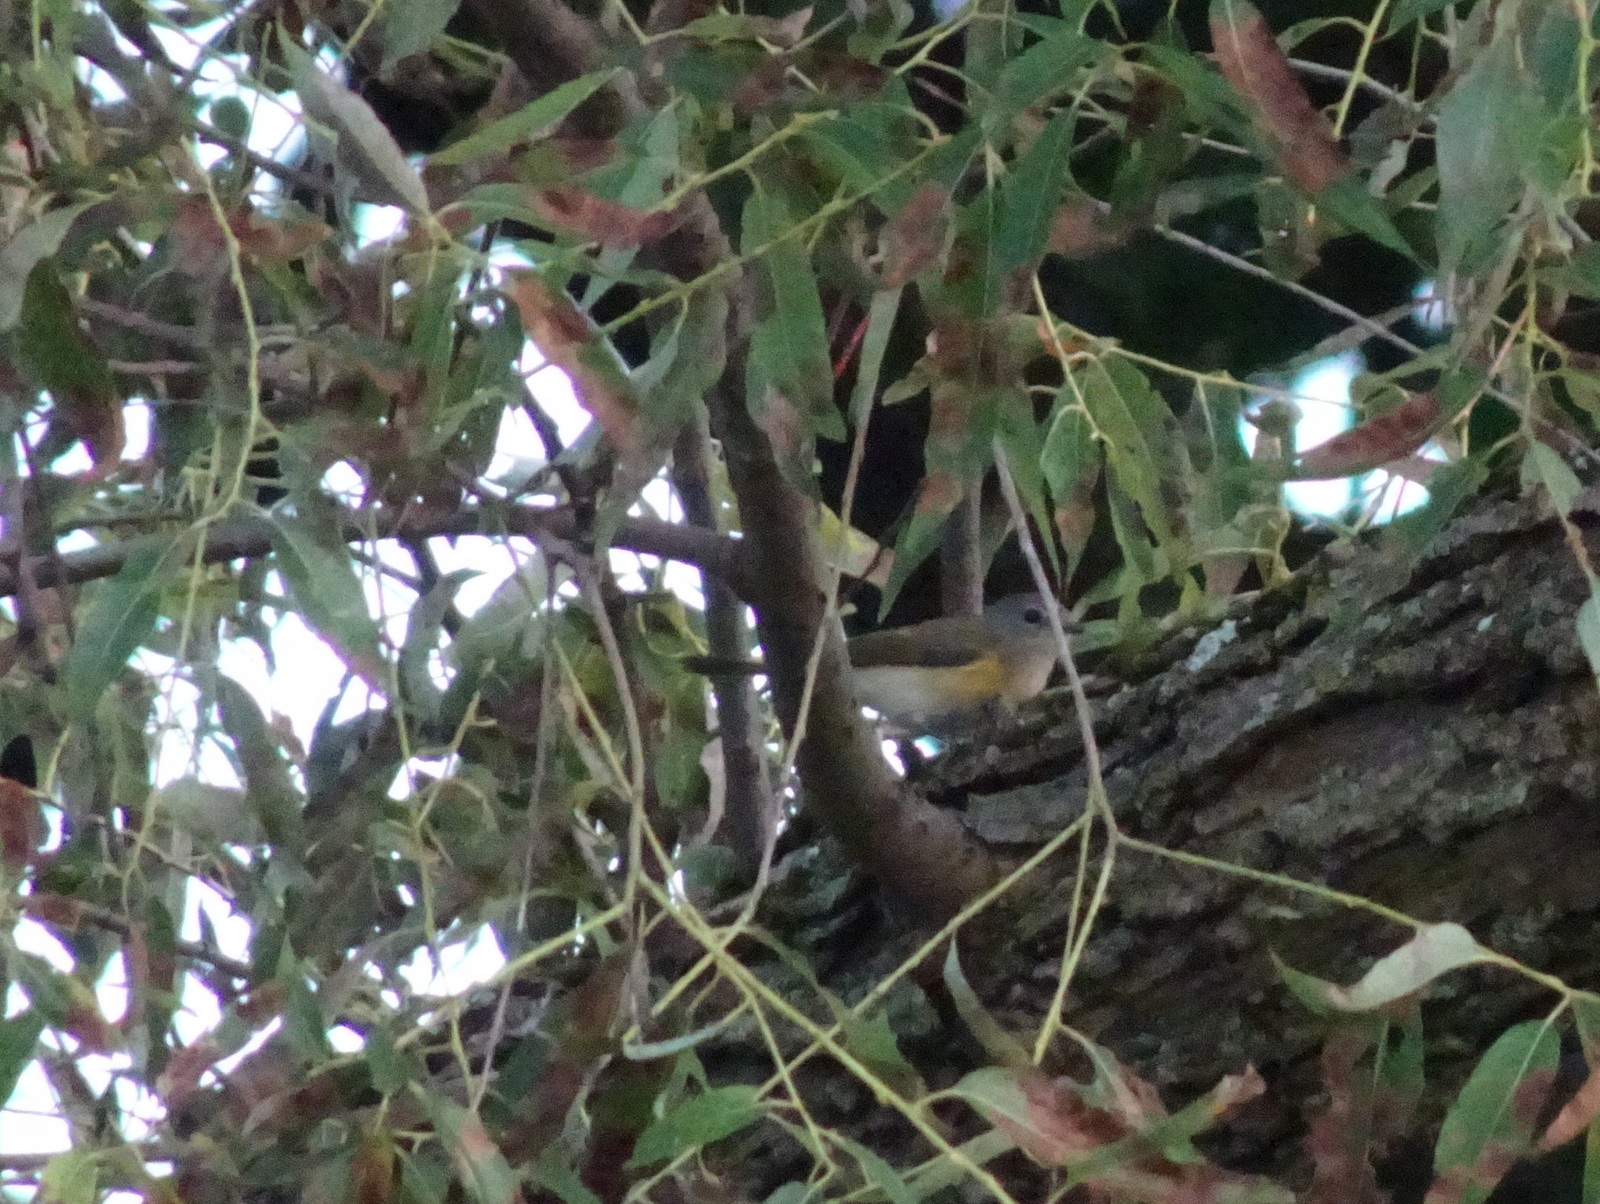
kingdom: Animalia
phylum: Chordata
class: Aves
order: Passeriformes
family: Parulidae
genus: Setophaga
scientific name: Setophaga ruticilla
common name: American redstart
